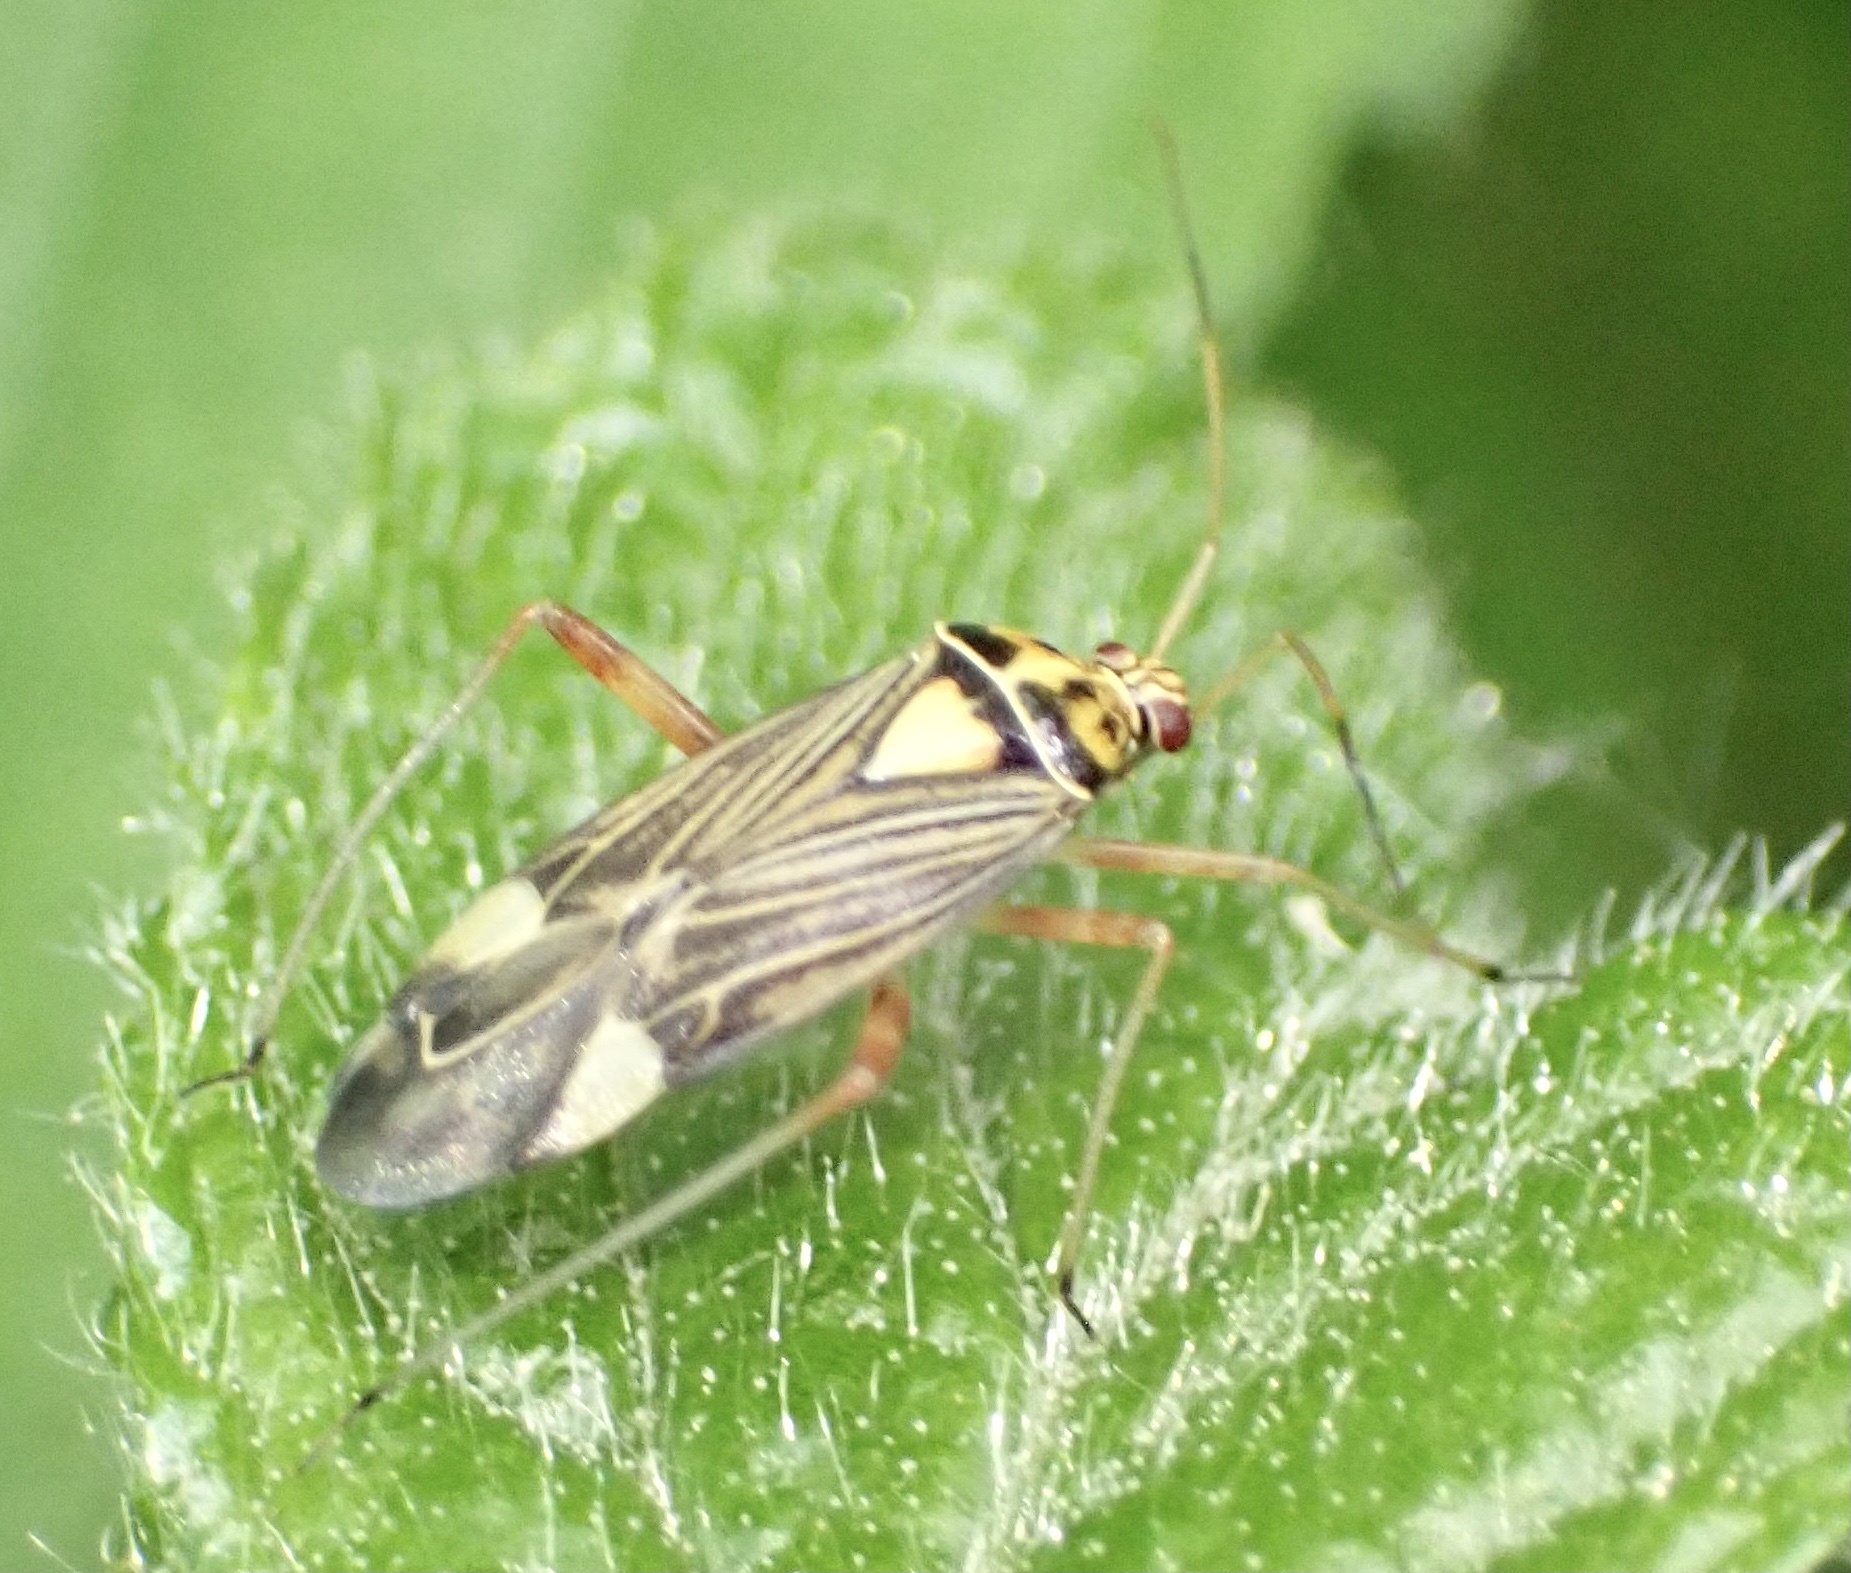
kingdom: Animalia
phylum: Arthropoda
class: Insecta
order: Hemiptera
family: Miridae
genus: Rhabdomiris
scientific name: Rhabdomiris striatellus
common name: Plant bug
